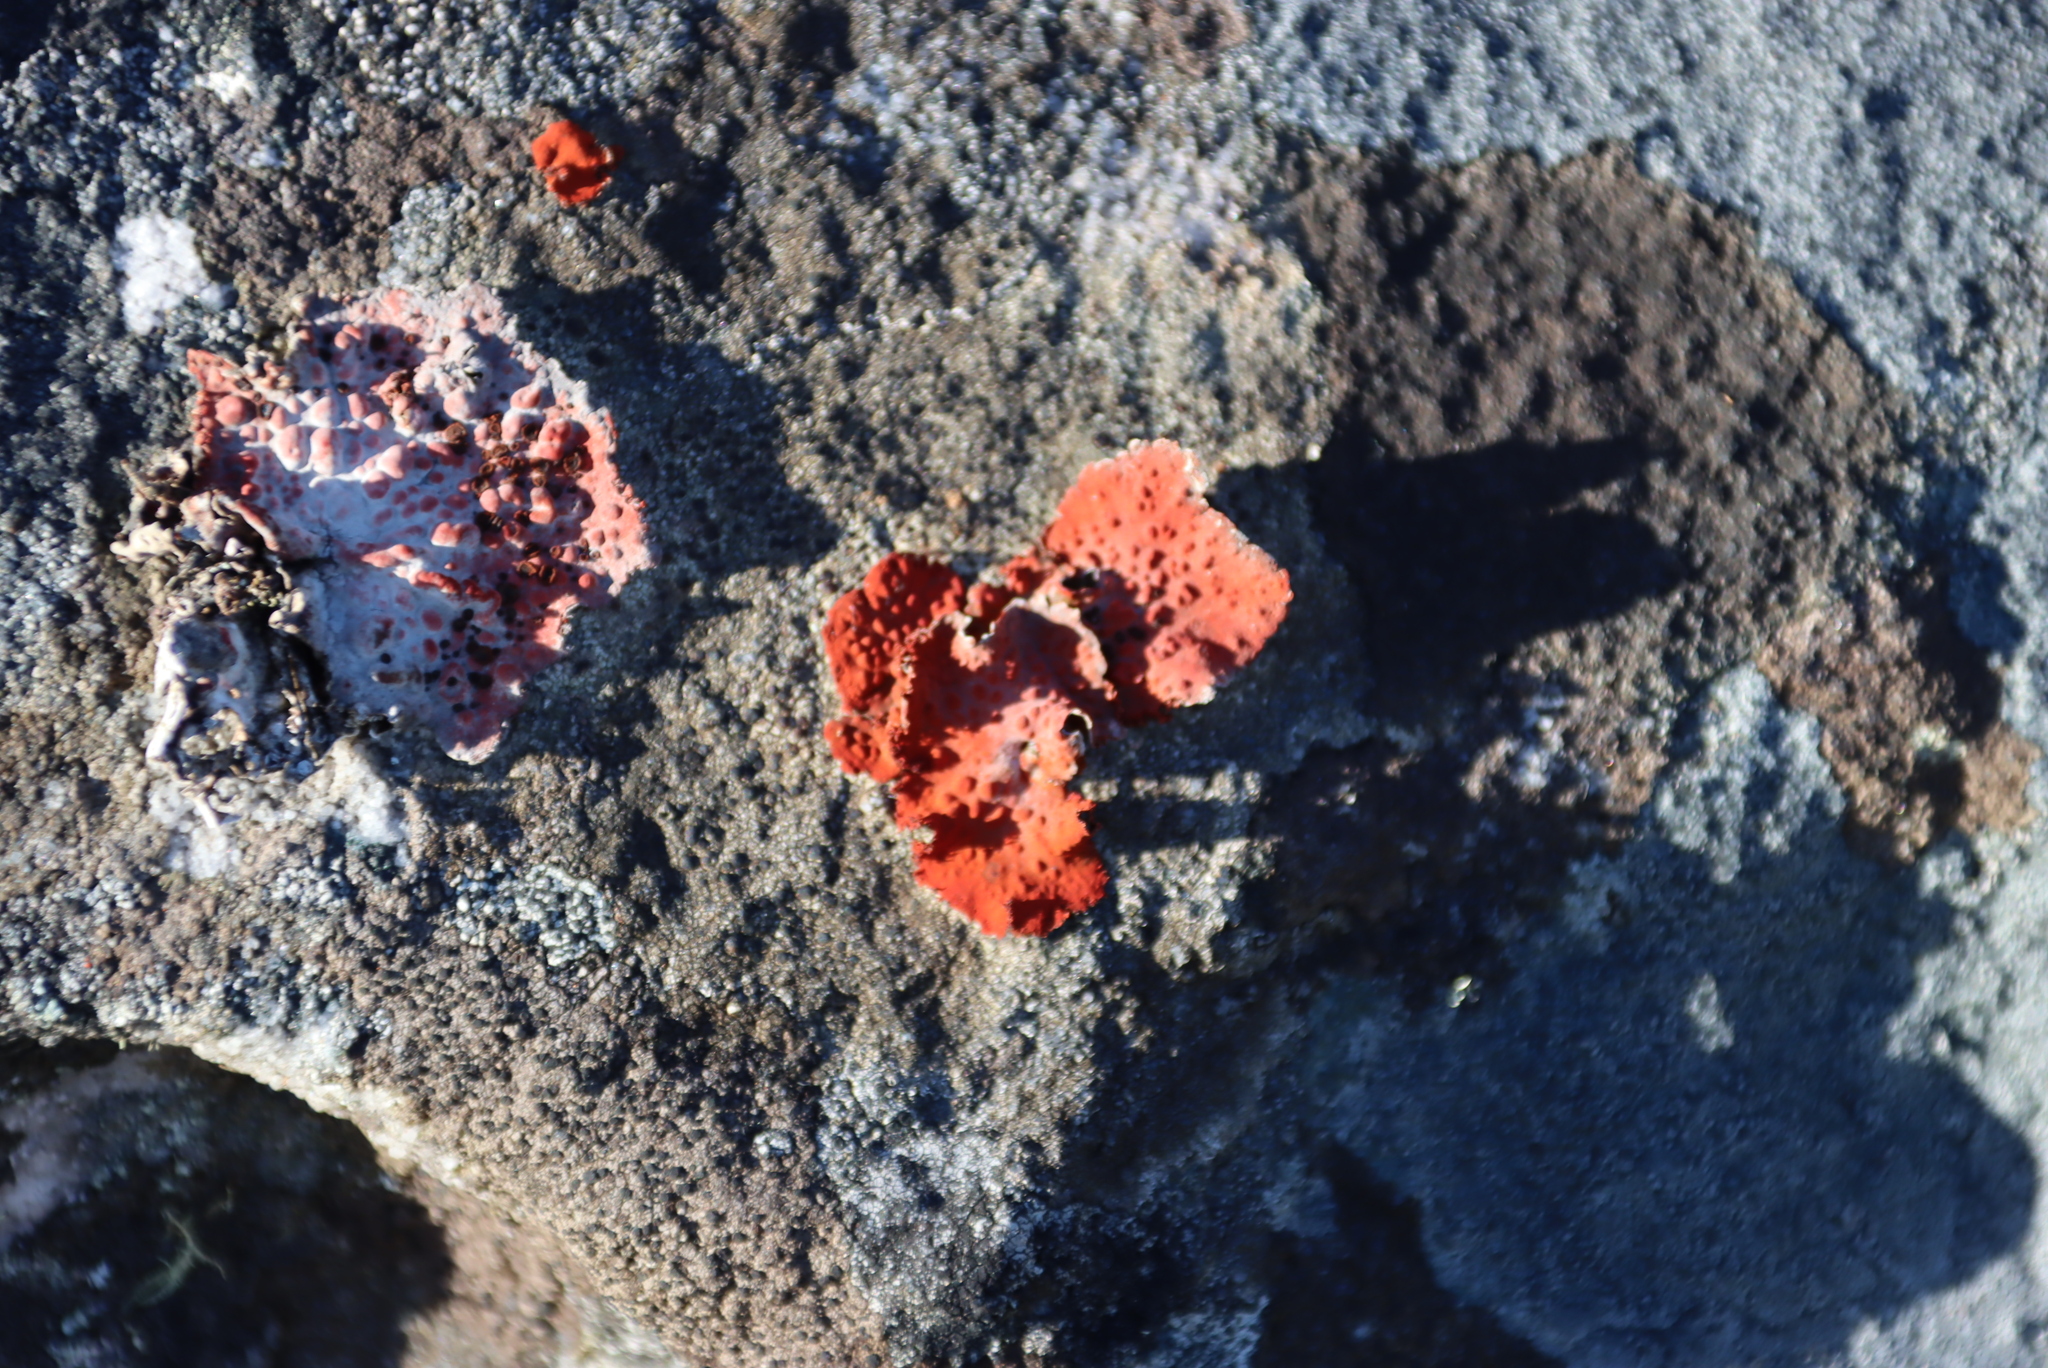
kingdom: Fungi
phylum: Ascomycota
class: Lecanoromycetes
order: Umbilicariales
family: Umbilicariaceae
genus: Lasallia
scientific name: Lasallia rubiginosa
